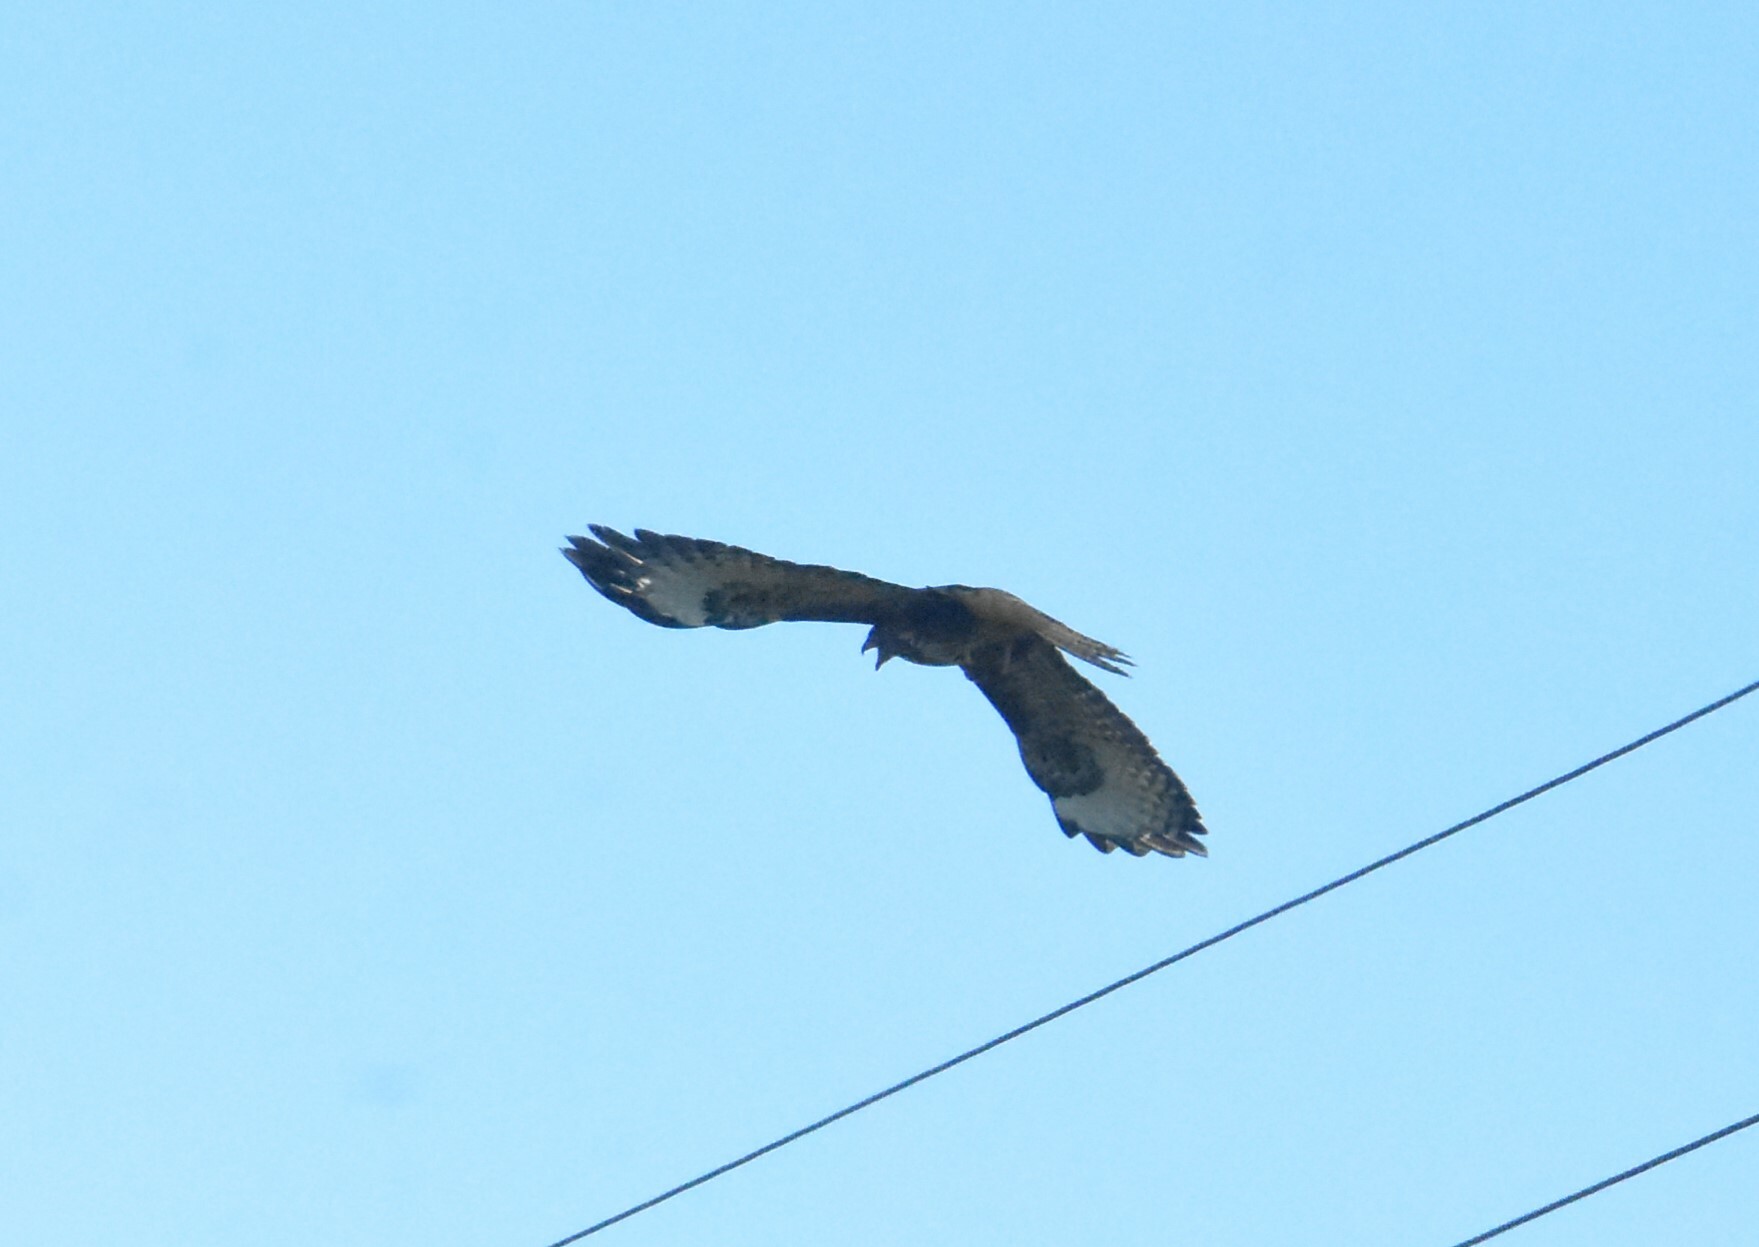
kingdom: Animalia
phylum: Chordata
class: Aves
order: Accipitriformes
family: Accipitridae
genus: Buteo
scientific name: Buteo buteo
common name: Common buzzard
